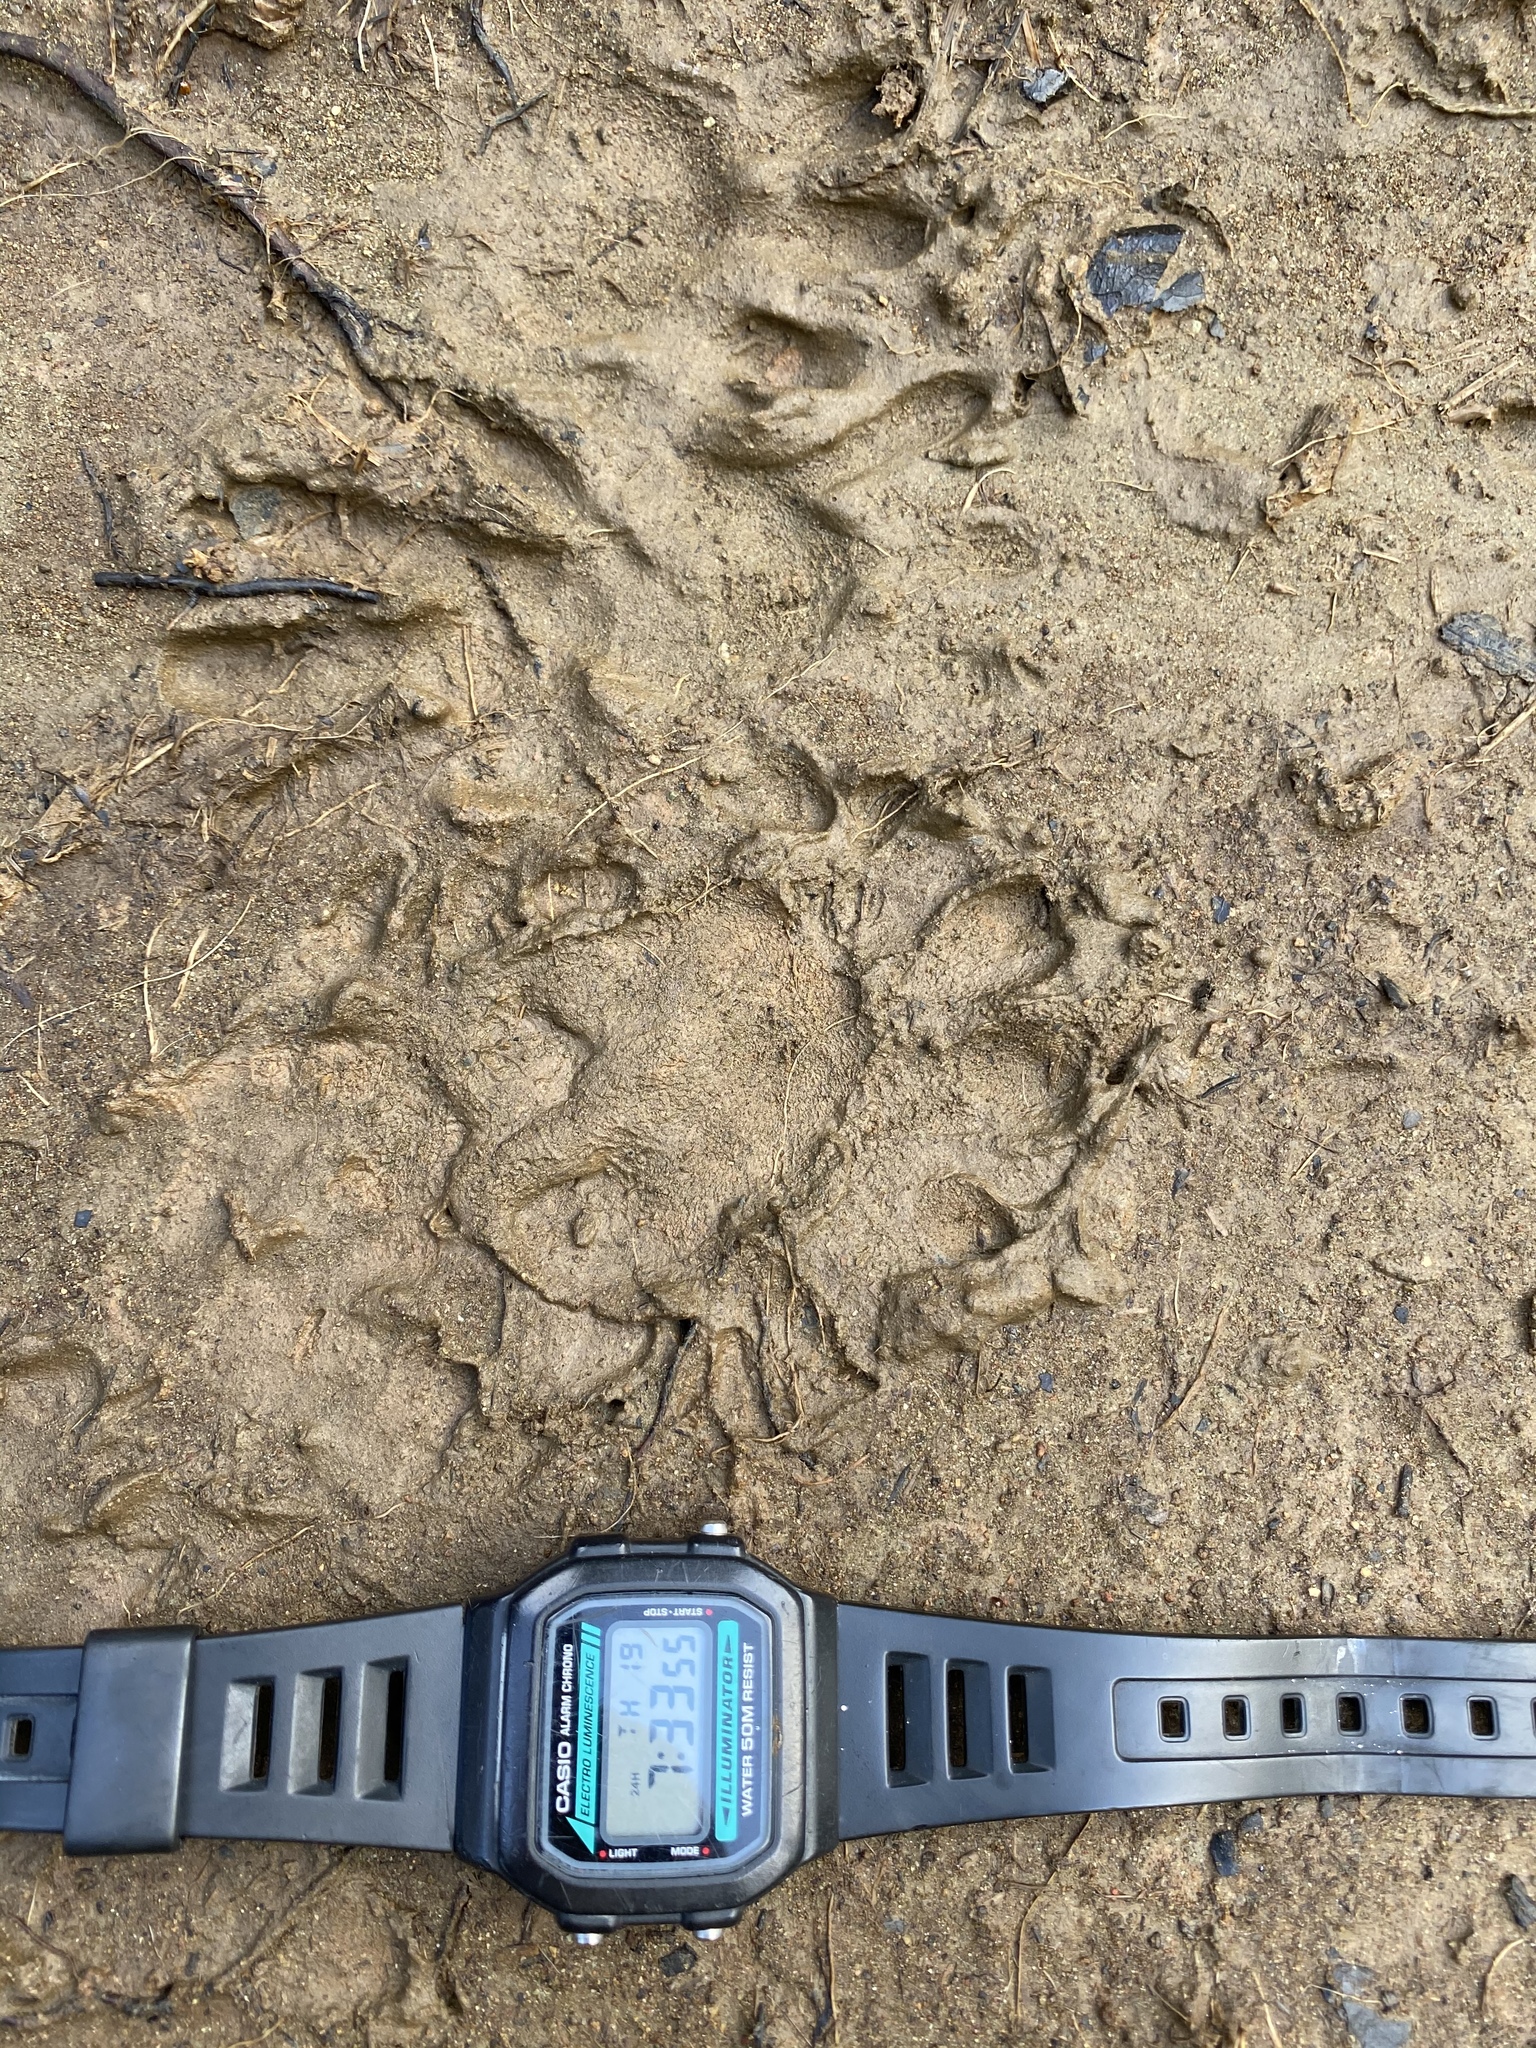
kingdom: Animalia
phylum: Chordata
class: Mammalia
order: Carnivora
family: Felidae
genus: Leopardus
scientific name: Leopardus pardalis
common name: Ocelot
